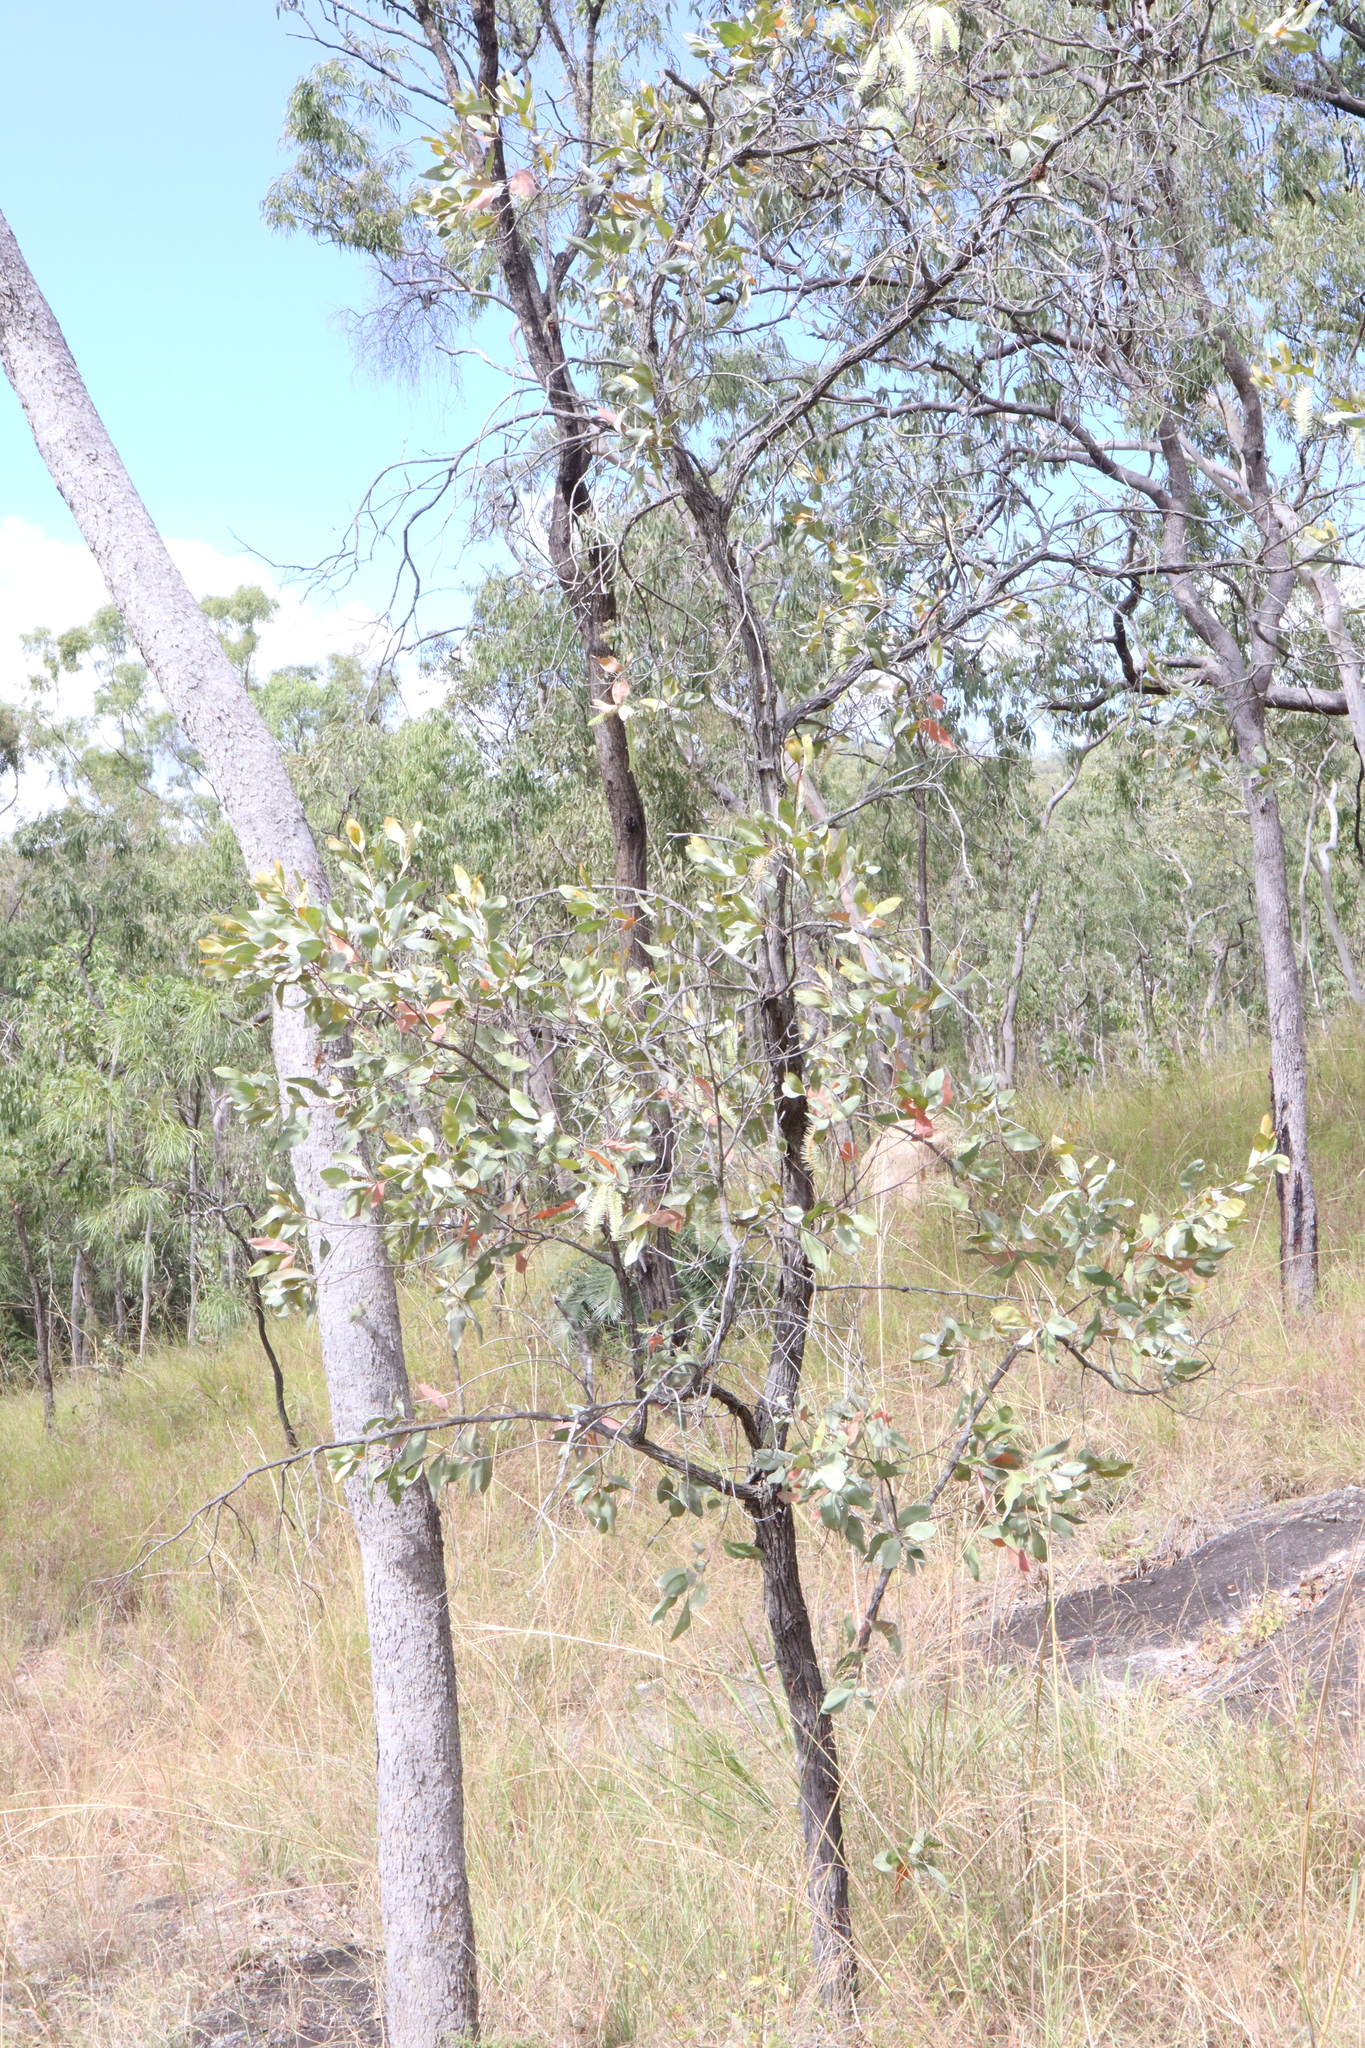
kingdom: Plantae
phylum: Tracheophyta
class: Magnoliopsida
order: Proteales
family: Proteaceae
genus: Grevillea
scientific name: Grevillea glauca
